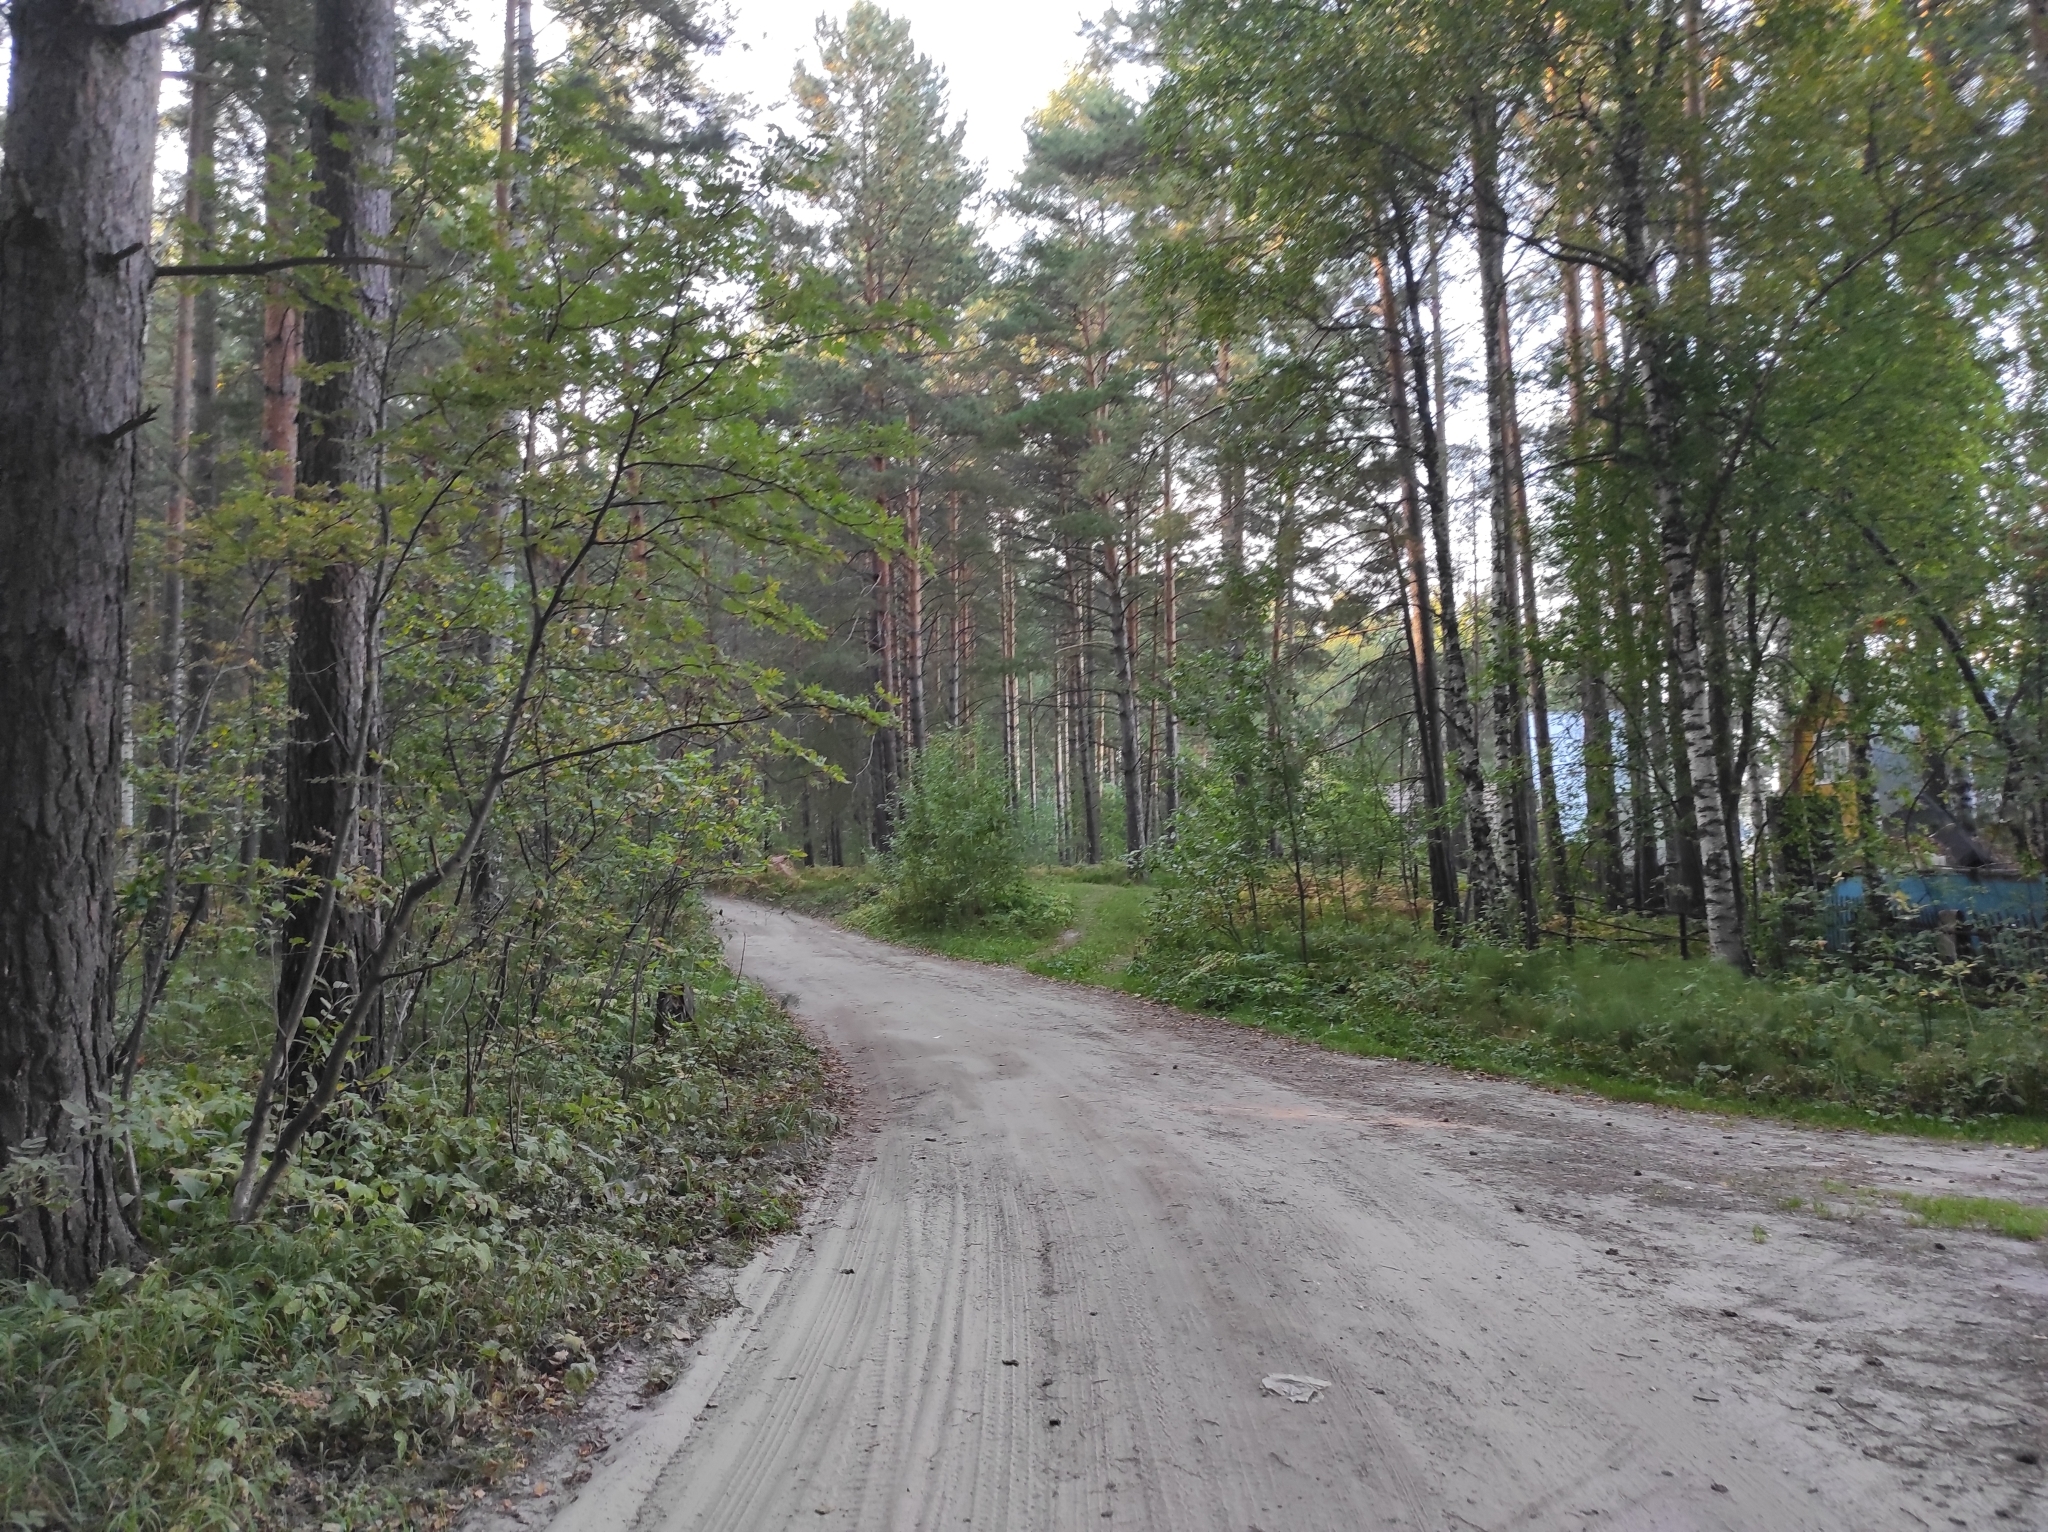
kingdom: Plantae
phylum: Tracheophyta
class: Magnoliopsida
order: Fagales
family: Betulaceae
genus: Betula
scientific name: Betula pendula
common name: Silver birch
